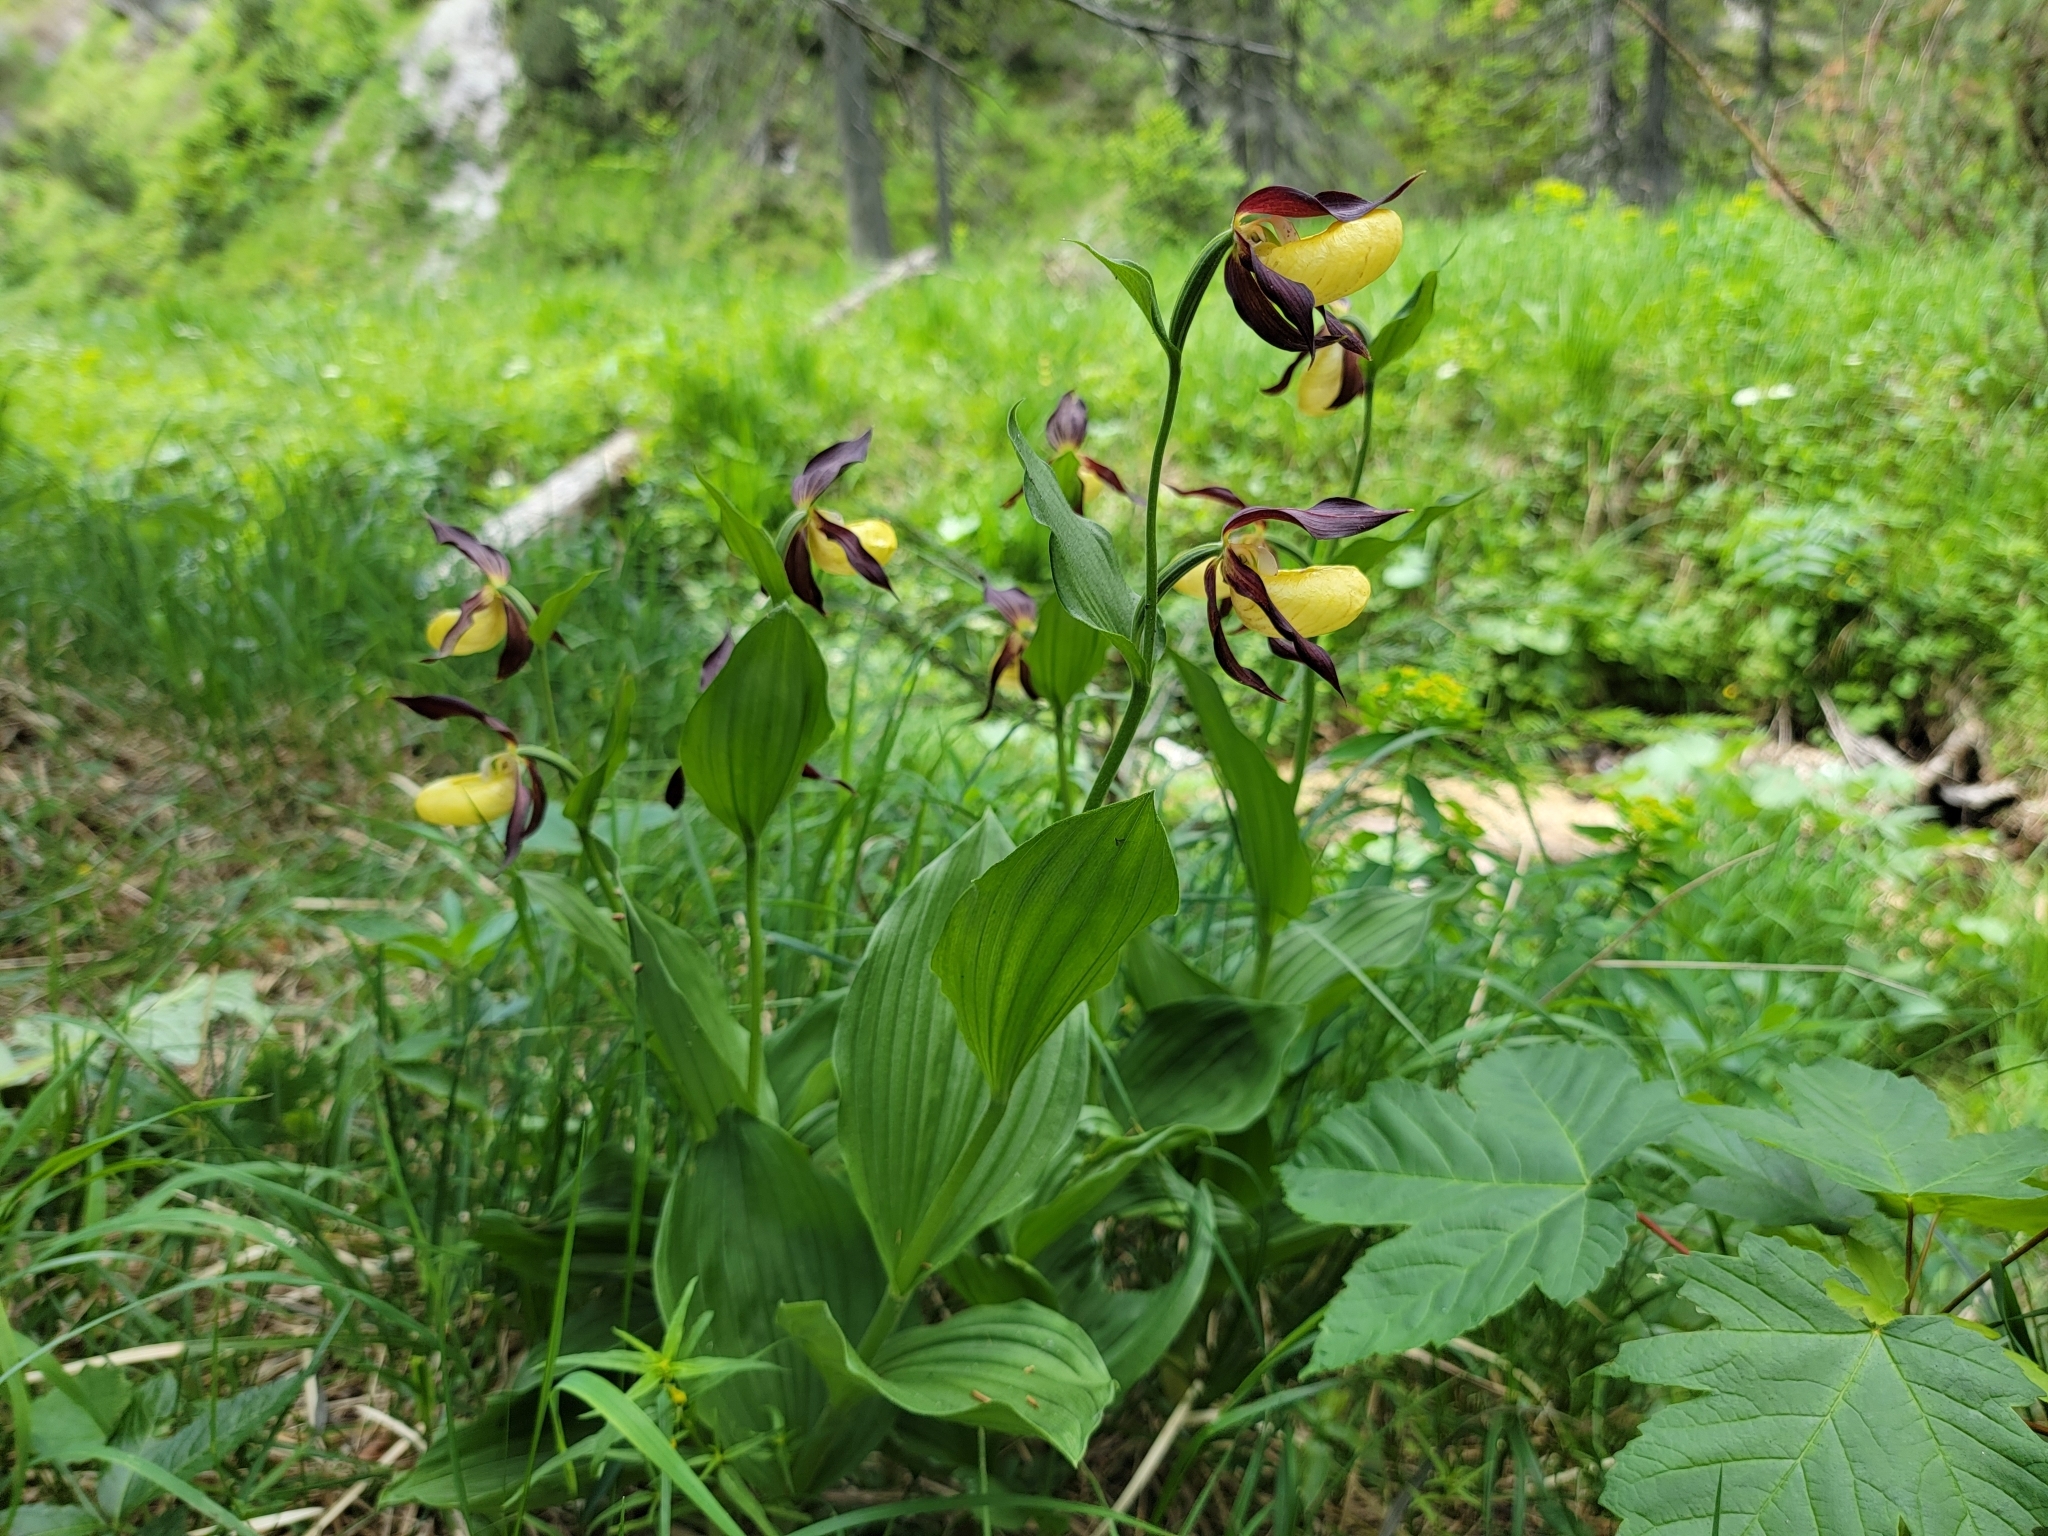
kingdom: Plantae
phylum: Tracheophyta
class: Liliopsida
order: Asparagales
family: Orchidaceae
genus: Cypripedium
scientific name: Cypripedium calceolus
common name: Lady's-slipper
